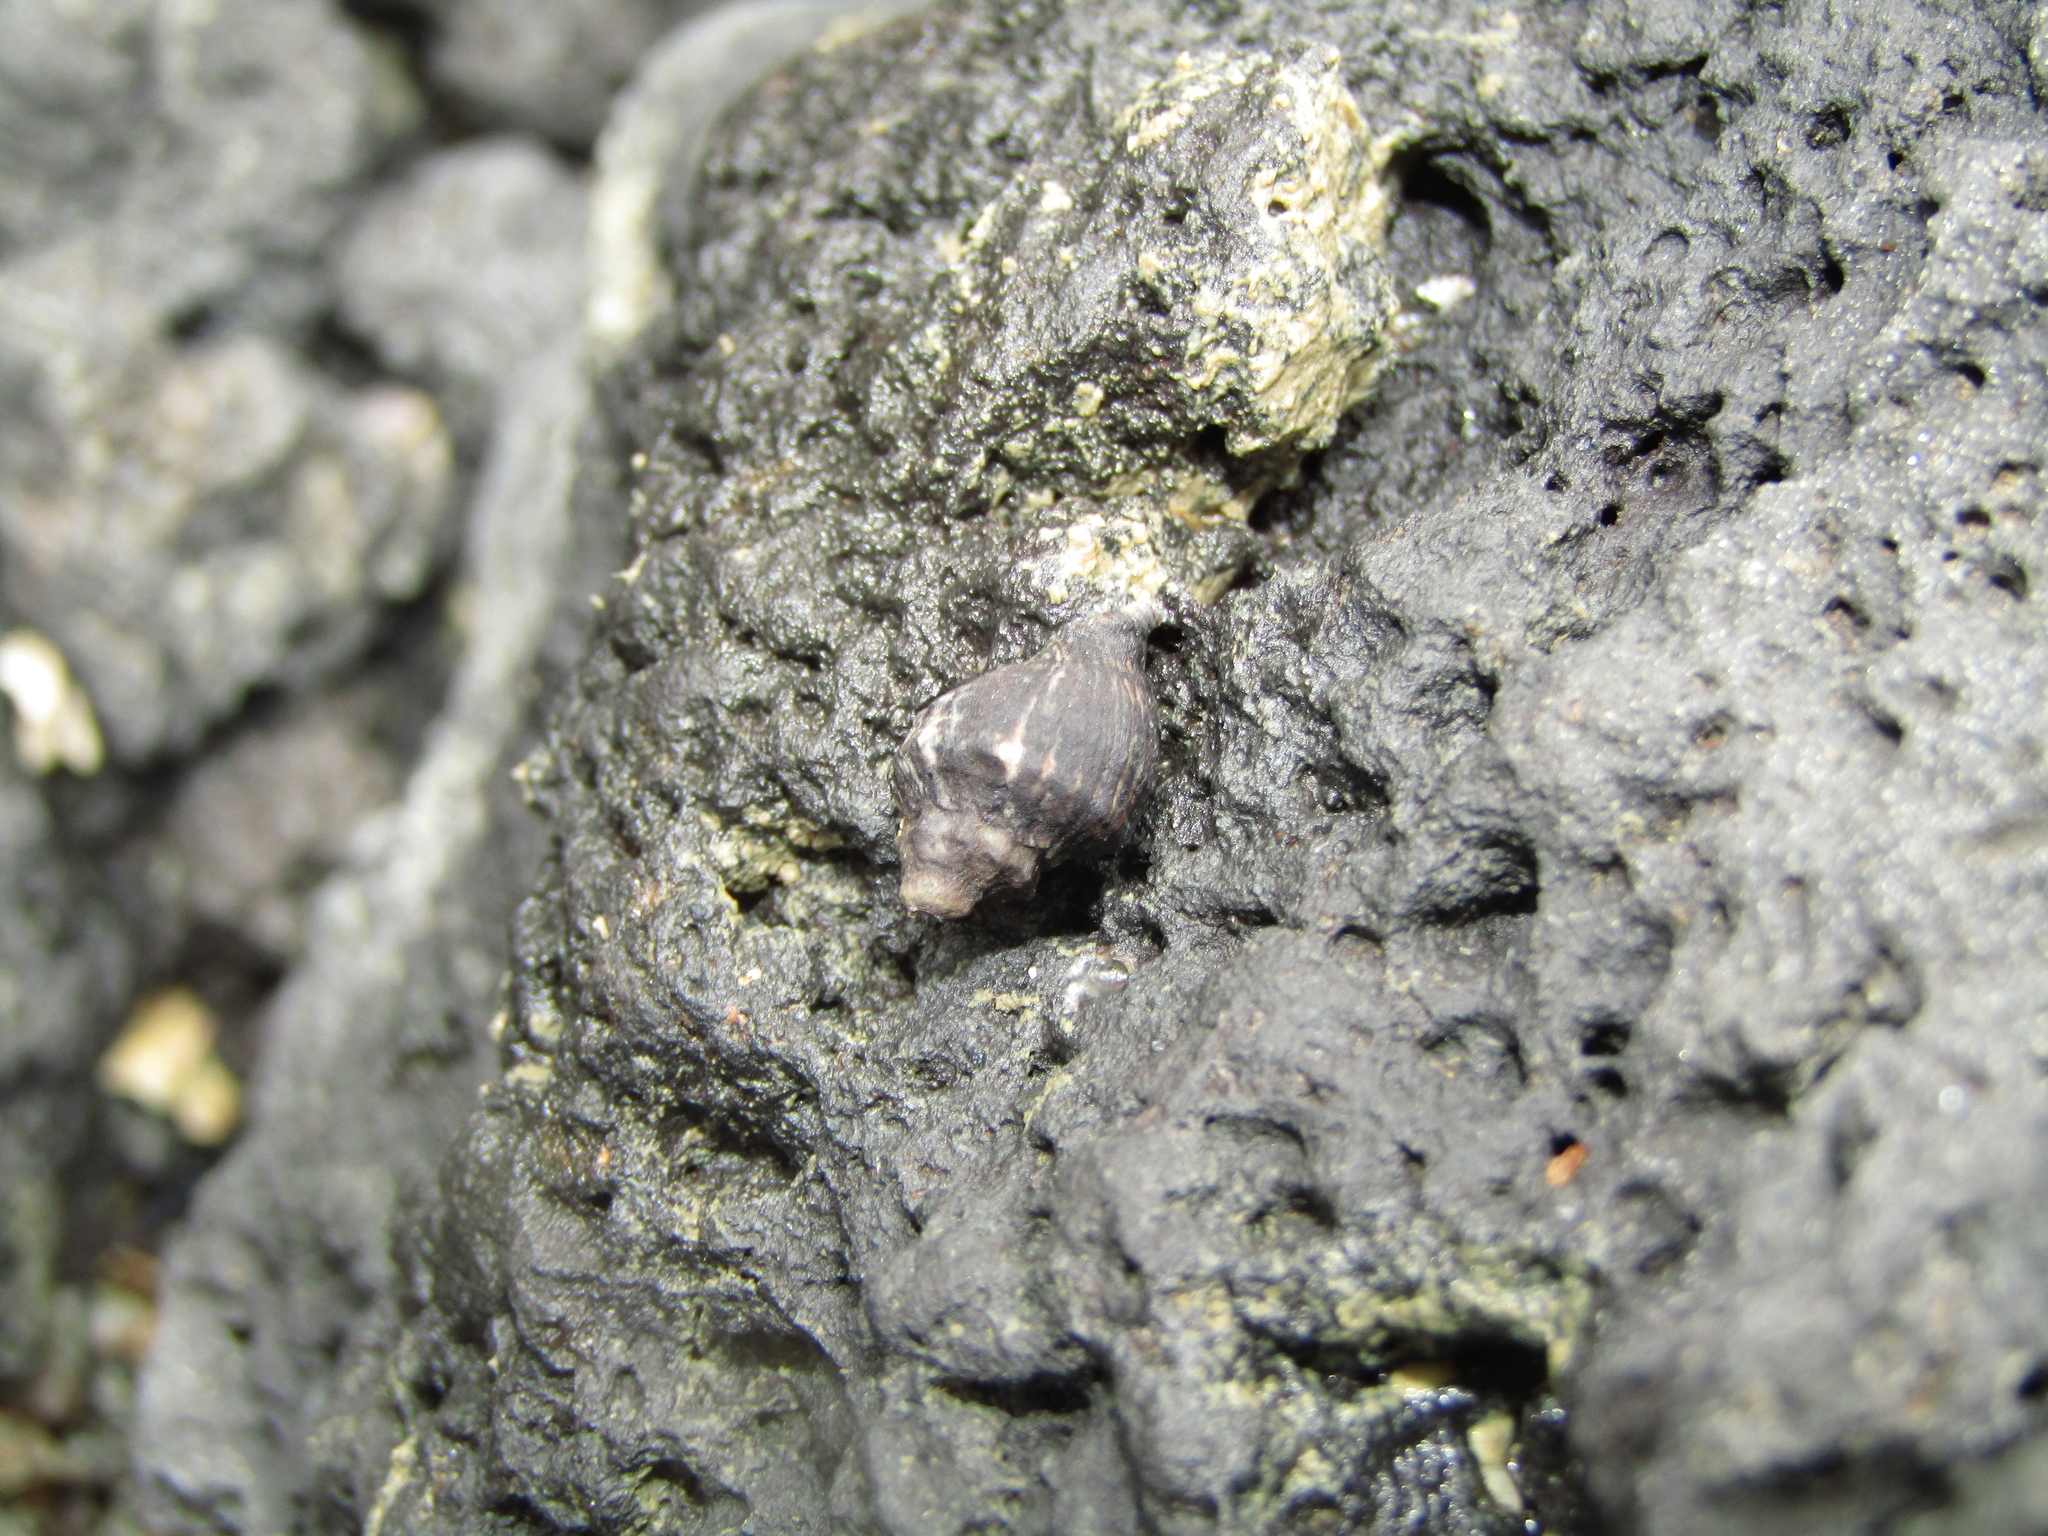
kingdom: Animalia
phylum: Mollusca
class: Gastropoda
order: Neogastropoda
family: Muricidae
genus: Haustrum
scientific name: Haustrum albomarginatum
